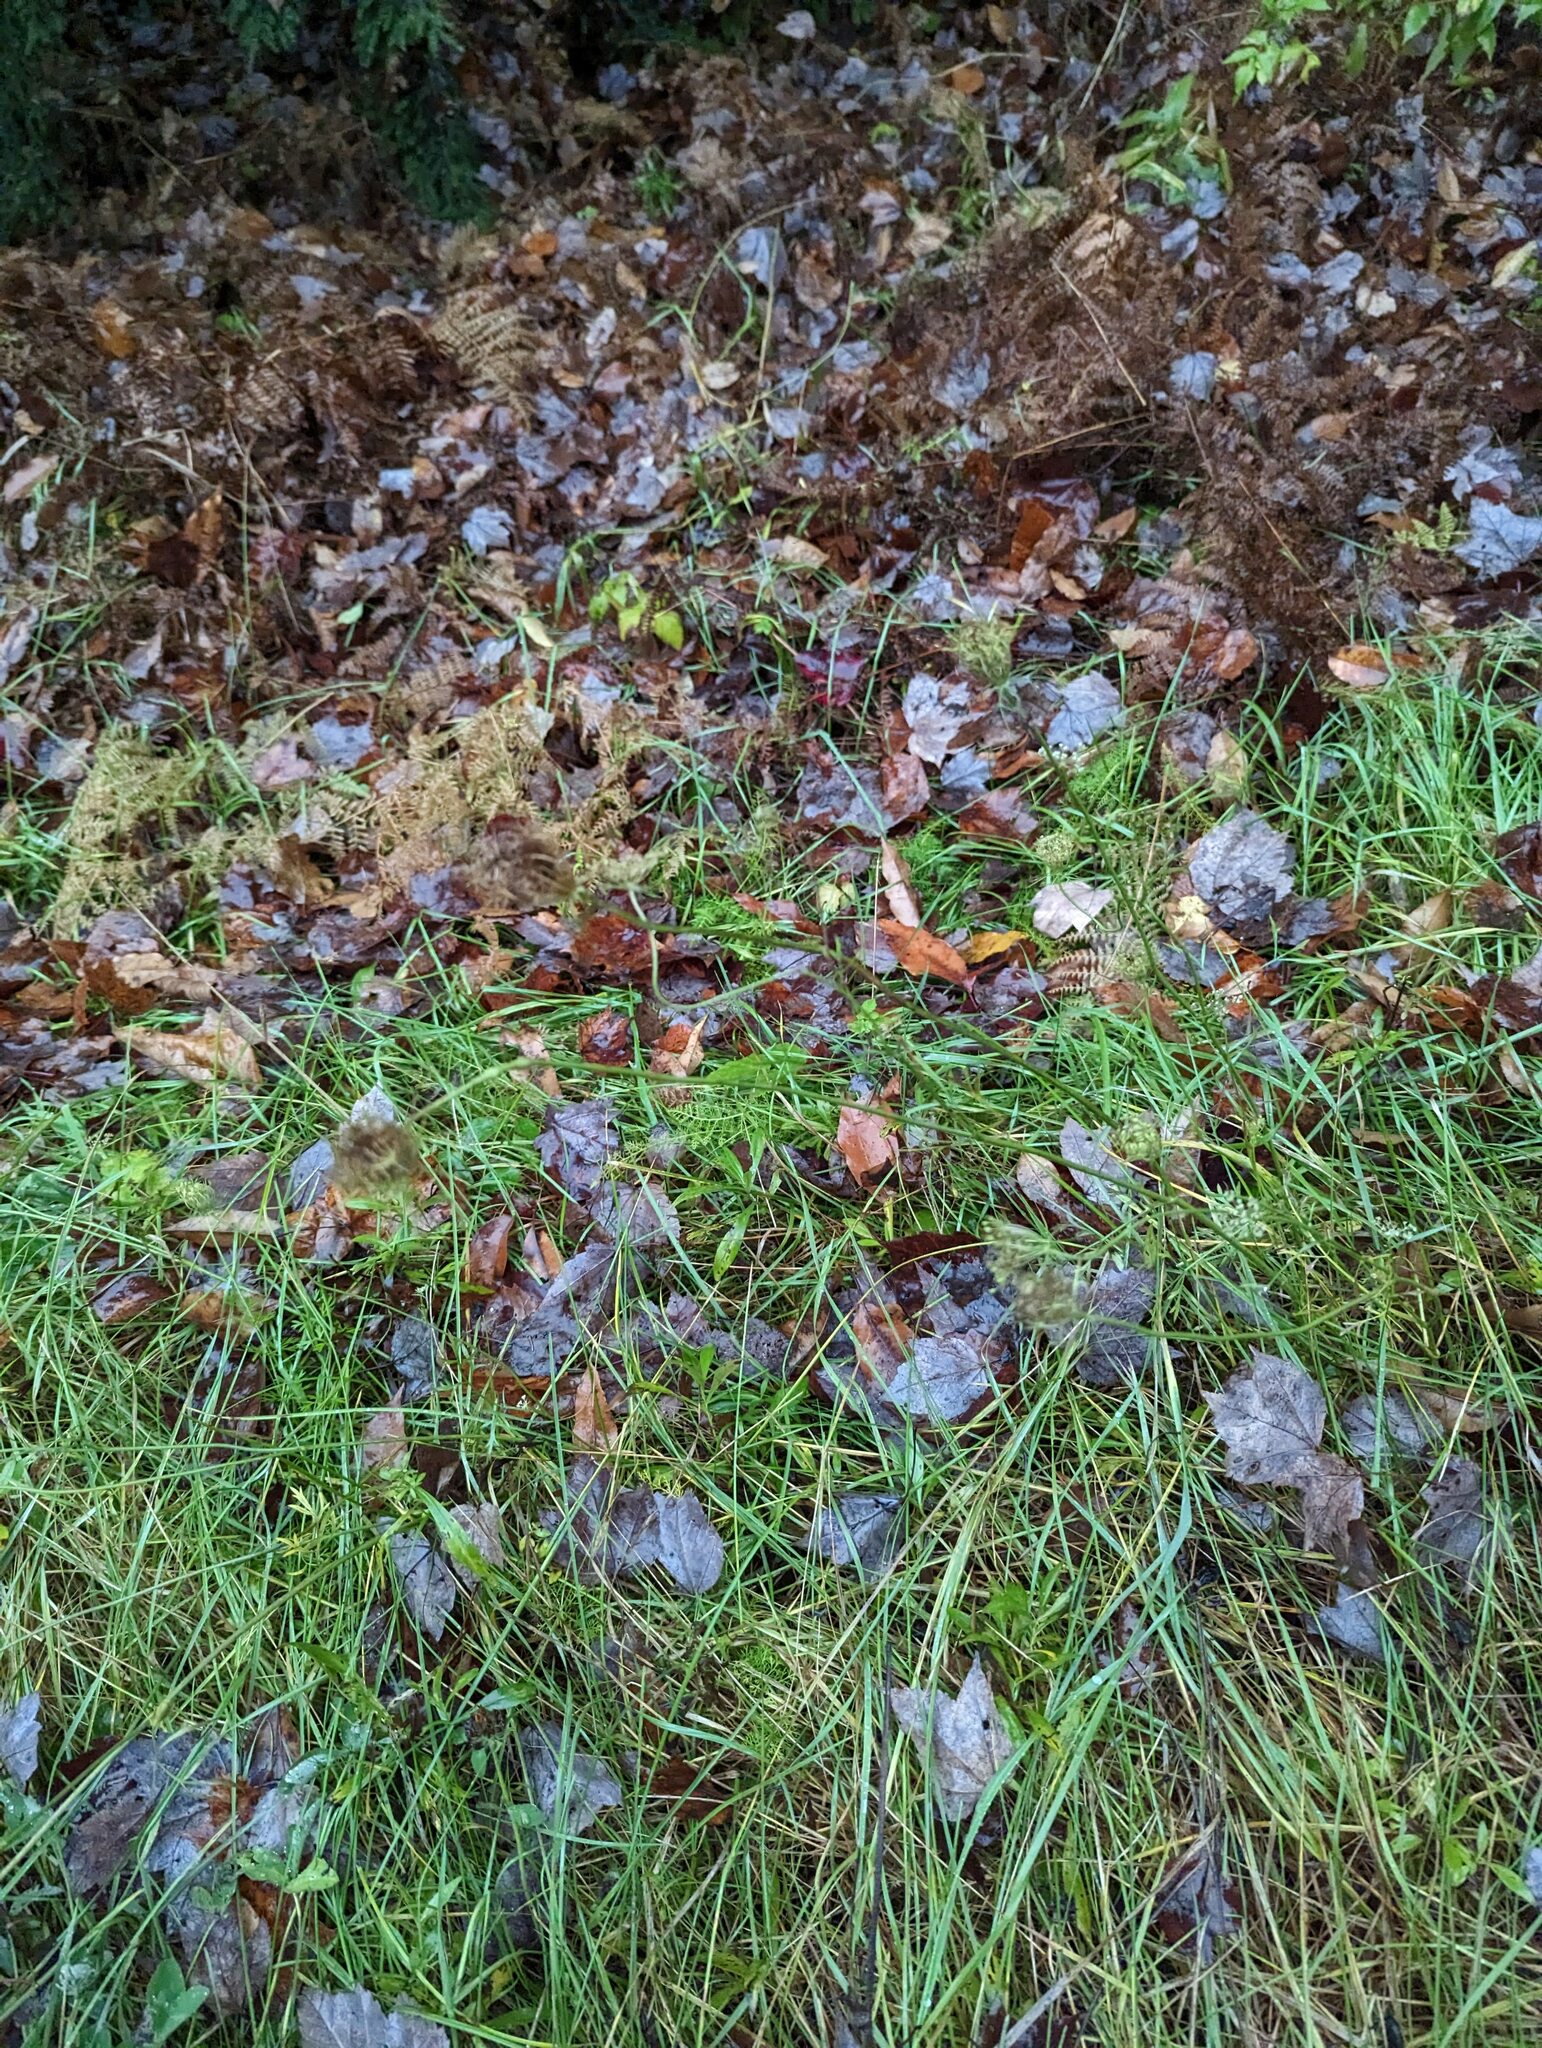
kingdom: Plantae
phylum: Tracheophyta
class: Magnoliopsida
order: Apiales
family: Apiaceae
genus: Daucus
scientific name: Daucus carota
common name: Wild carrot
